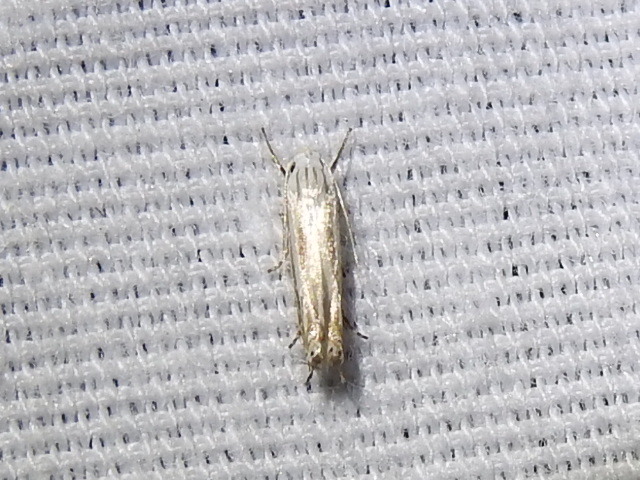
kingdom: Animalia
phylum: Arthropoda
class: Insecta
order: Lepidoptera
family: Gelechiidae
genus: Polyhymno
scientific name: Polyhymno luteostrigella
